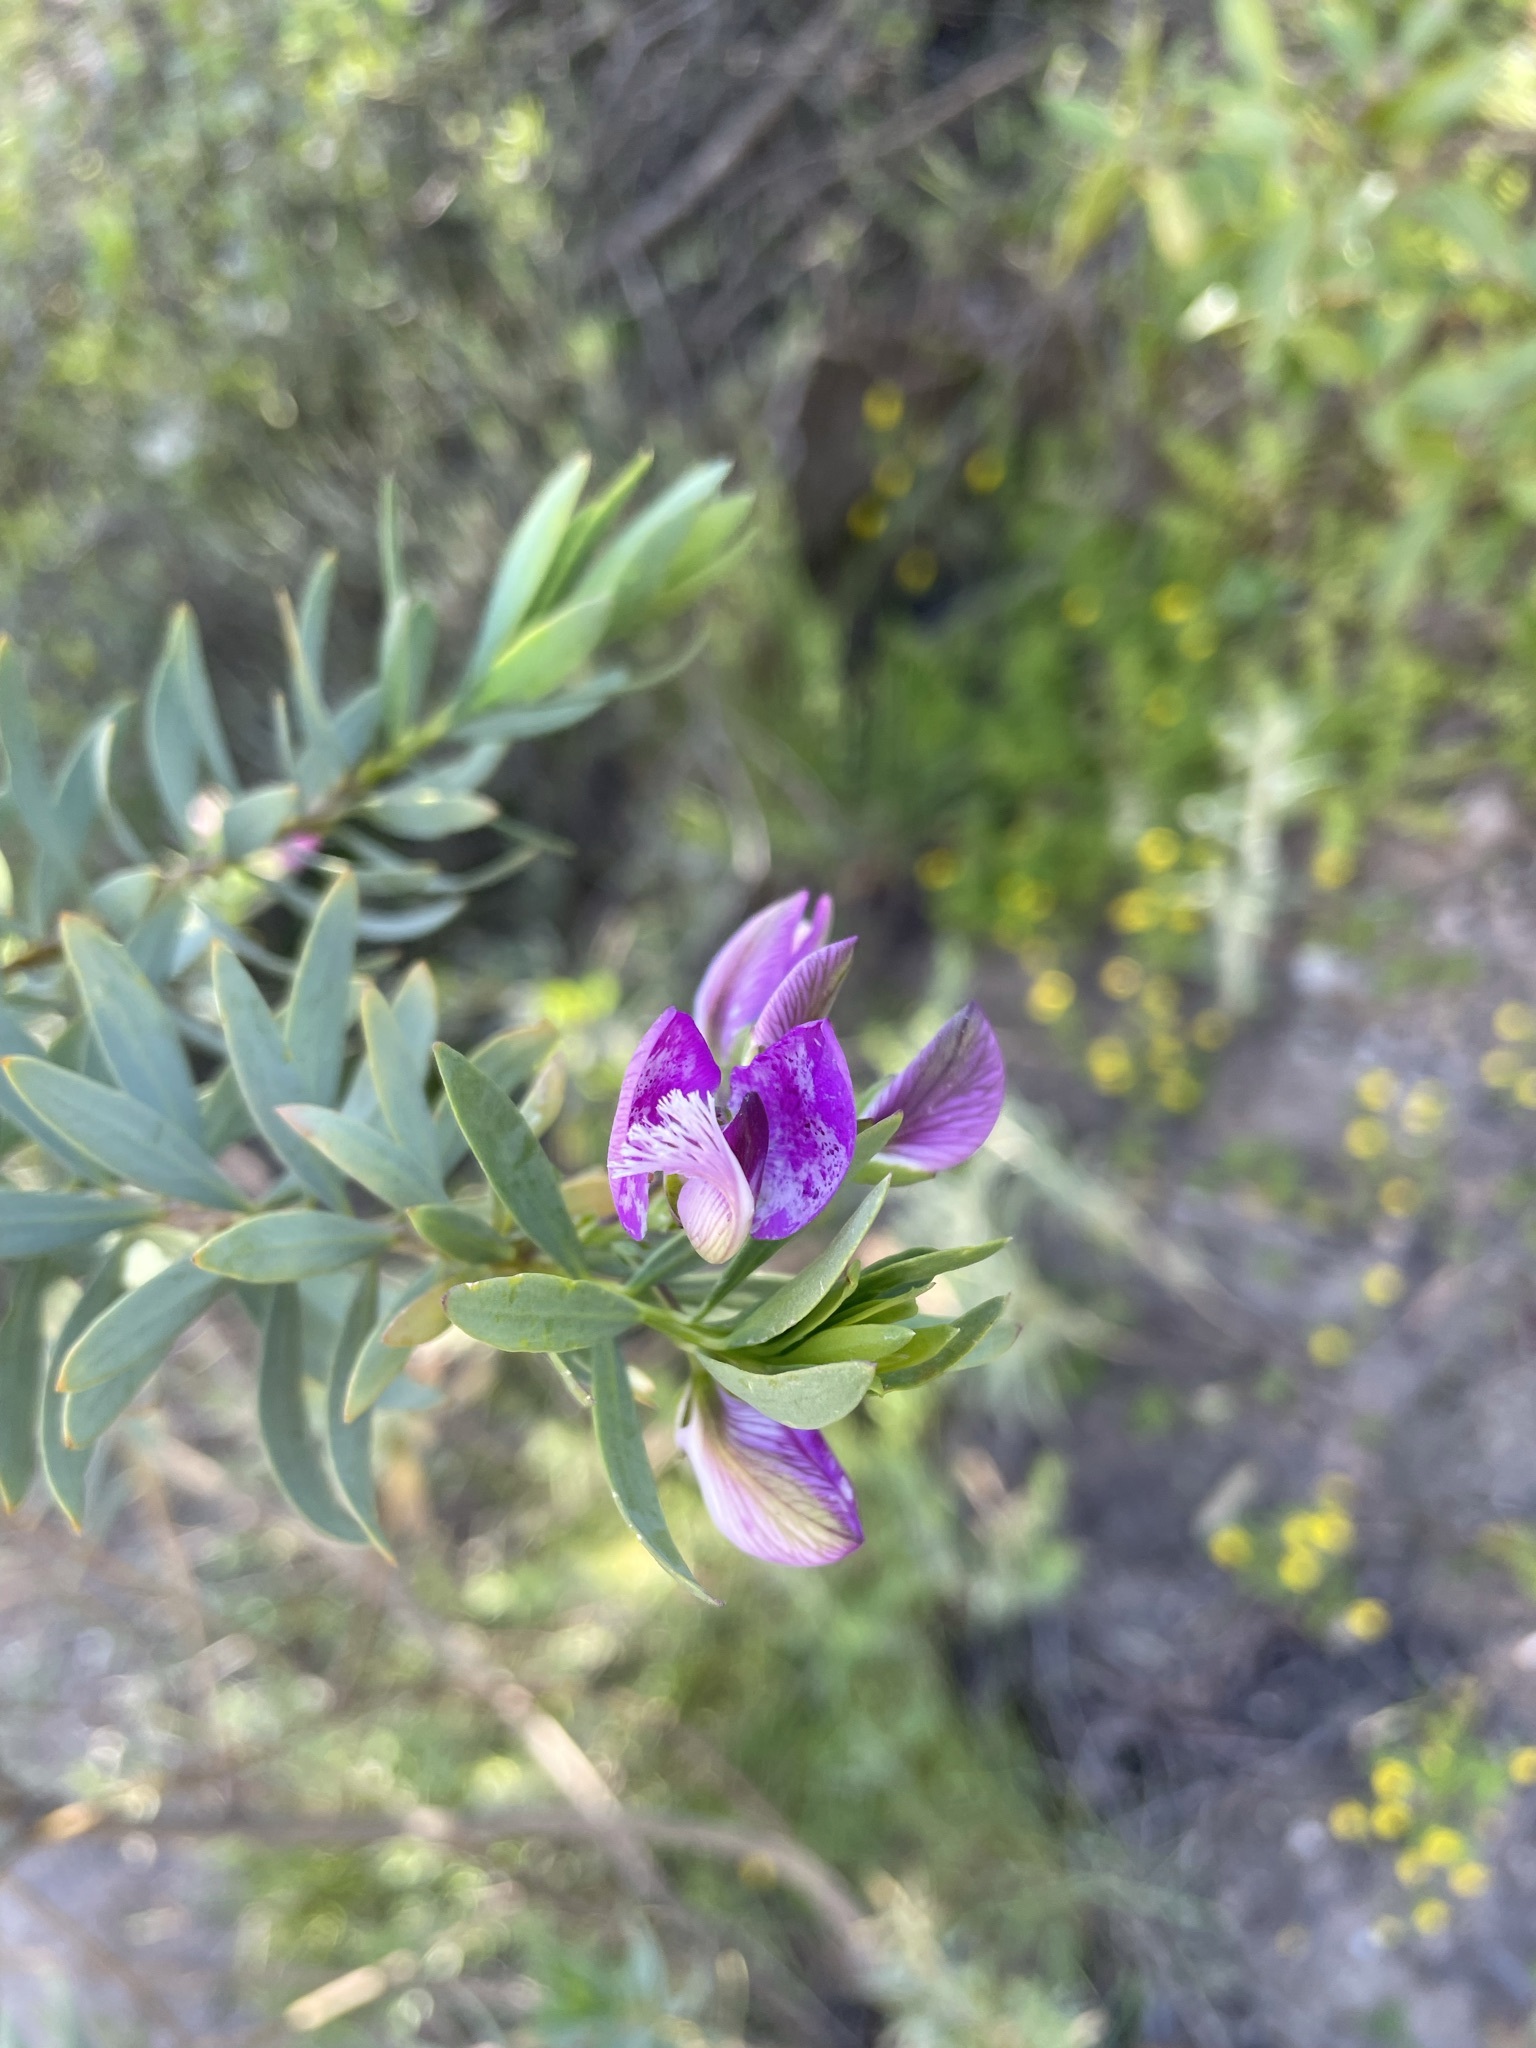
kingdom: Plantae
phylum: Tracheophyta
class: Magnoliopsida
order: Fabales
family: Polygalaceae
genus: Polygala
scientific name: Polygala myrtifolia
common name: Myrtle-leaf milkwort
